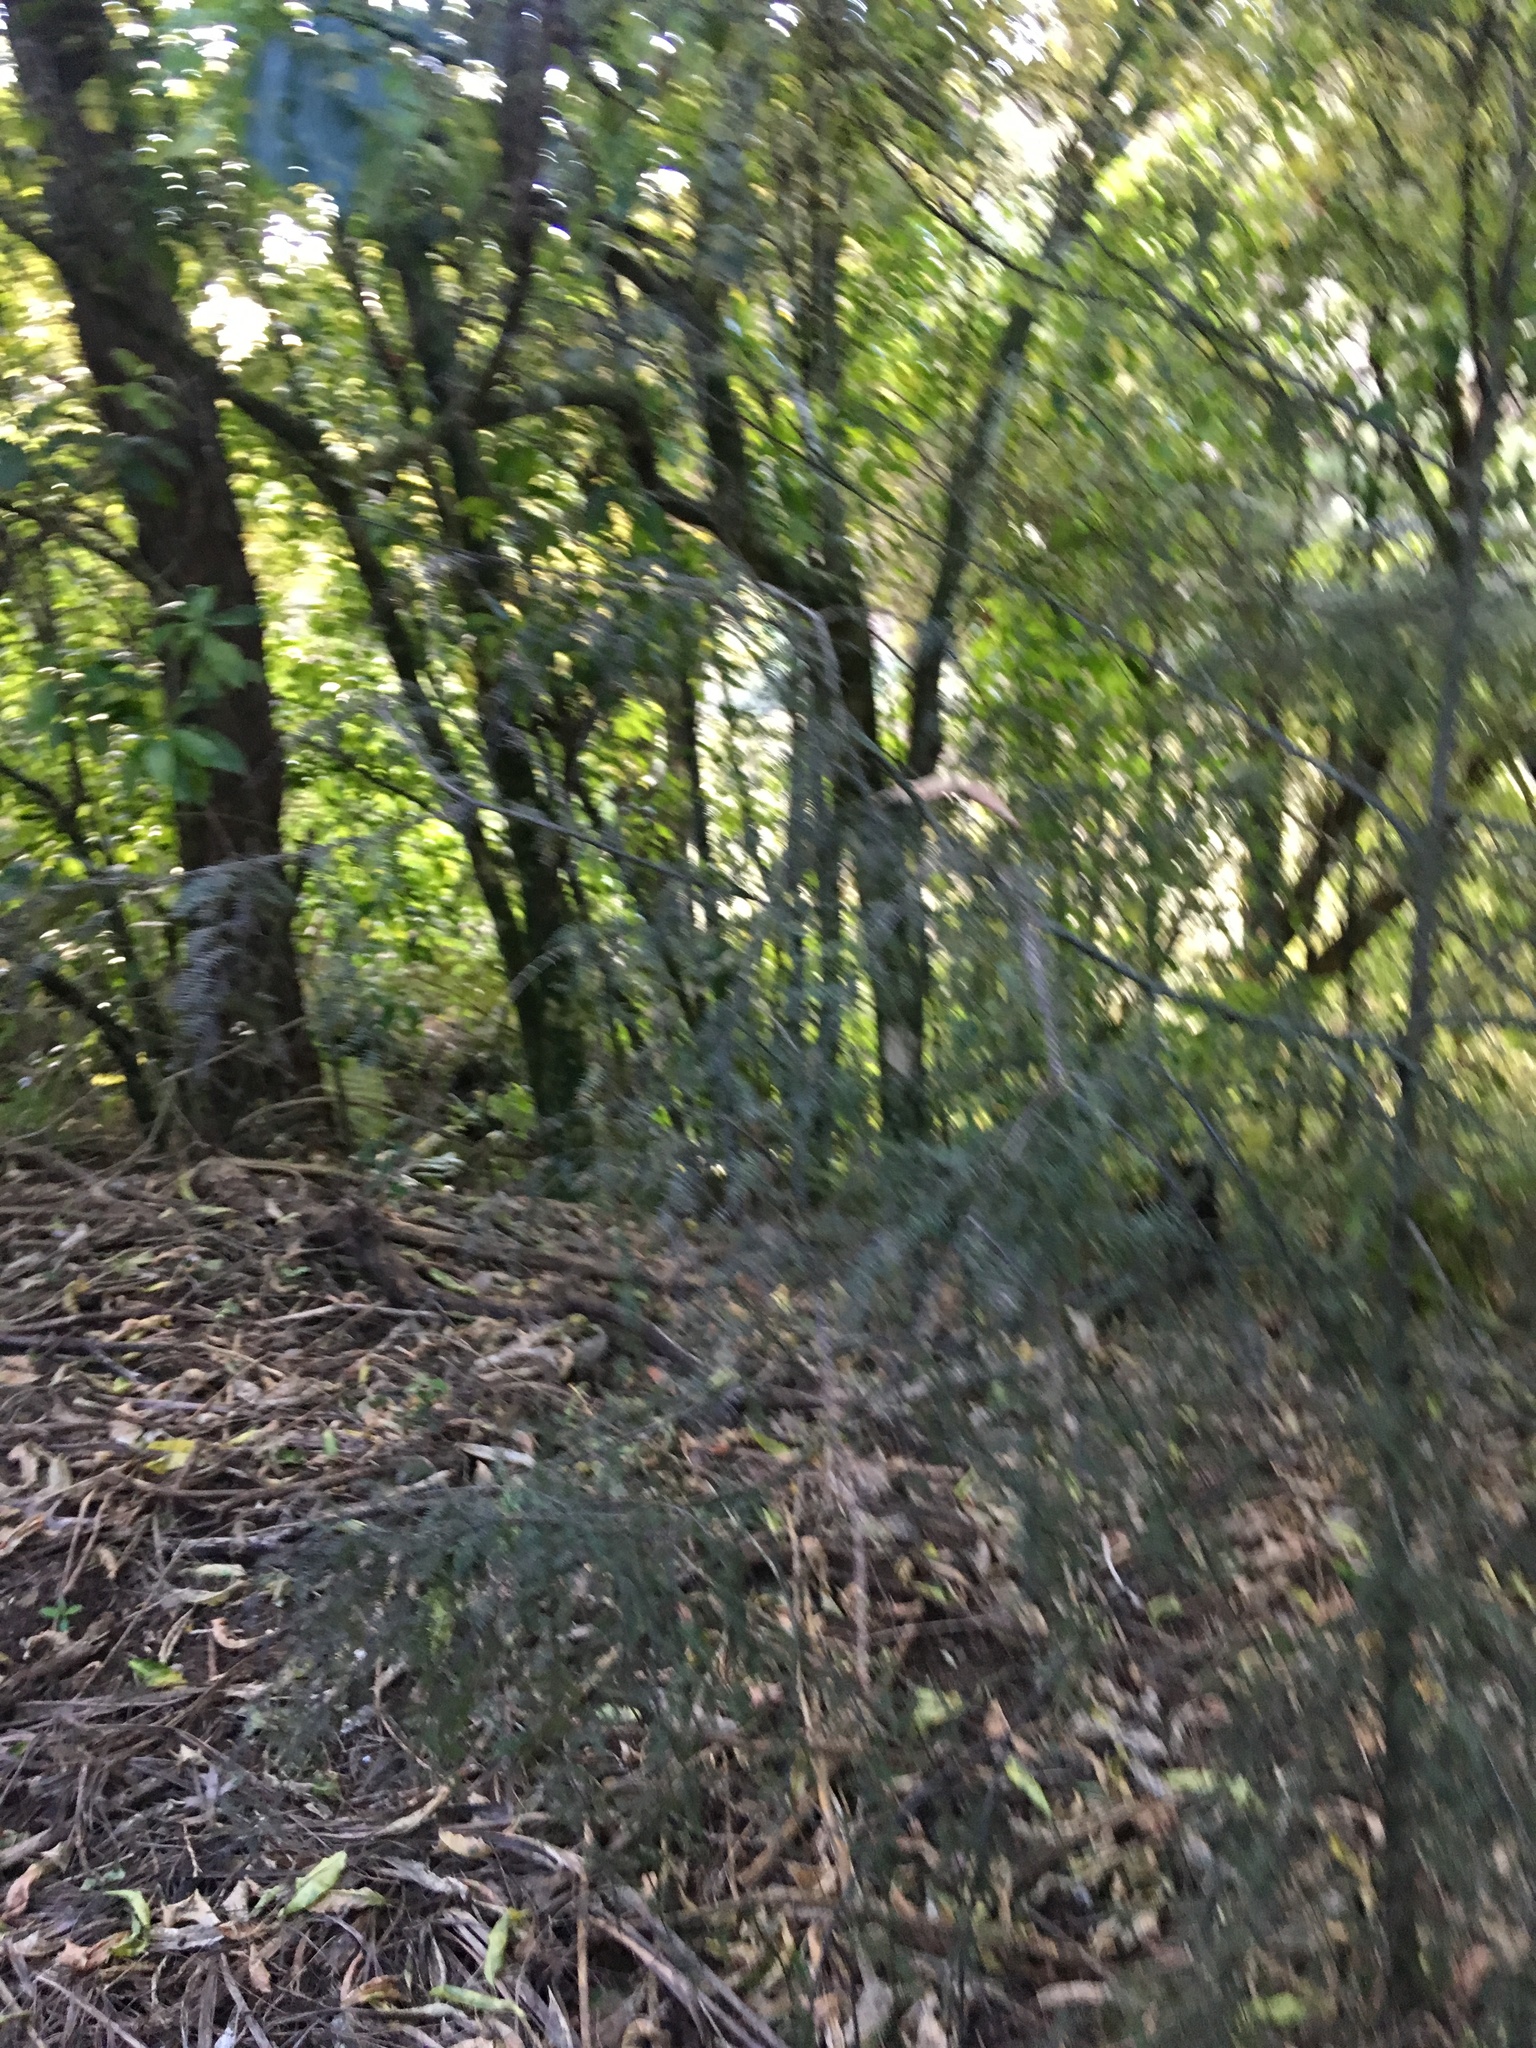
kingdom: Plantae
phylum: Tracheophyta
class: Pinopsida
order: Pinales
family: Podocarpaceae
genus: Dacrycarpus
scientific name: Dacrycarpus dacrydioides
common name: White pine
